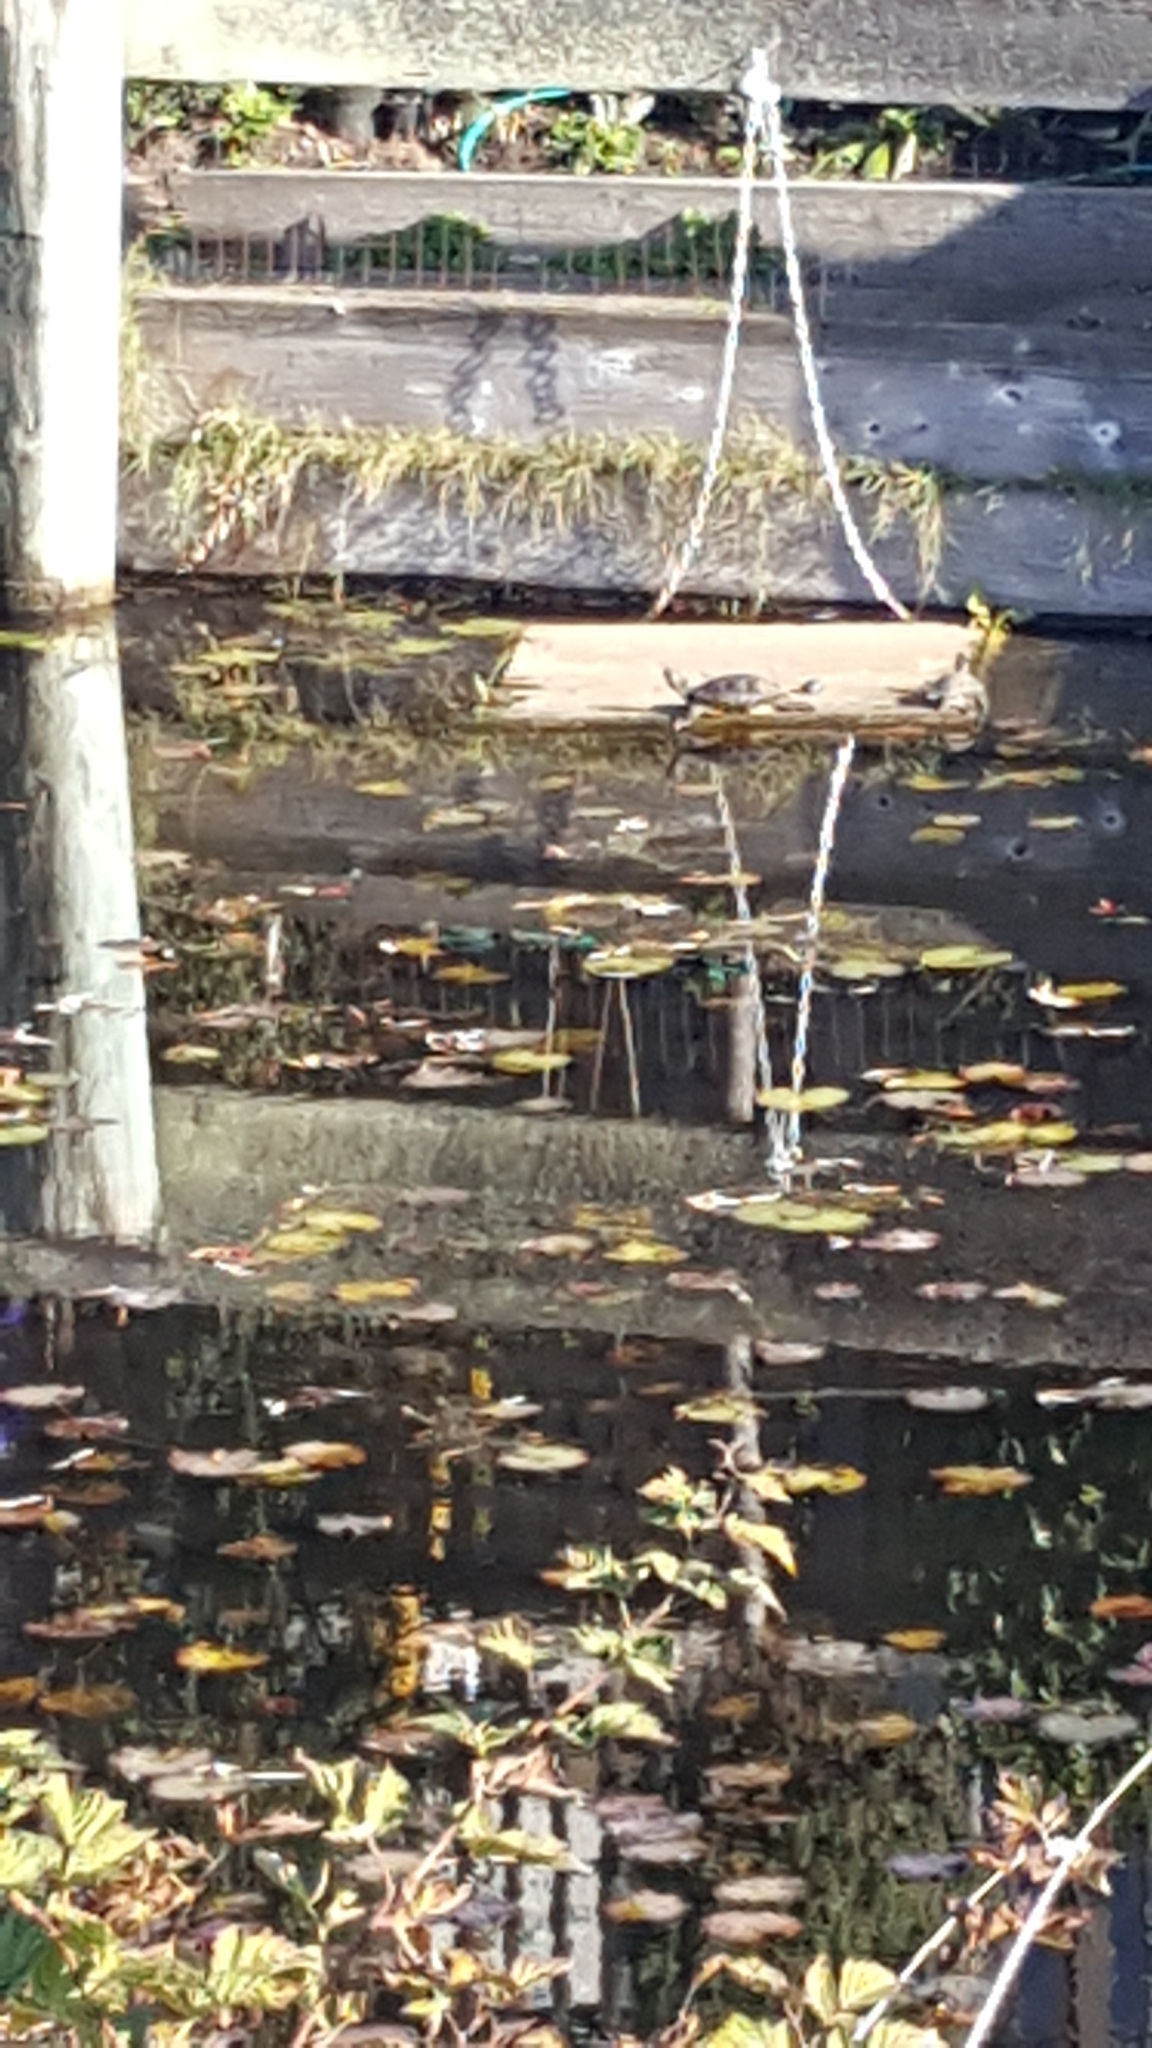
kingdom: Animalia
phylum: Chordata
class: Testudines
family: Emydidae
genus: Trachemys
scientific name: Trachemys scripta
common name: Slider
